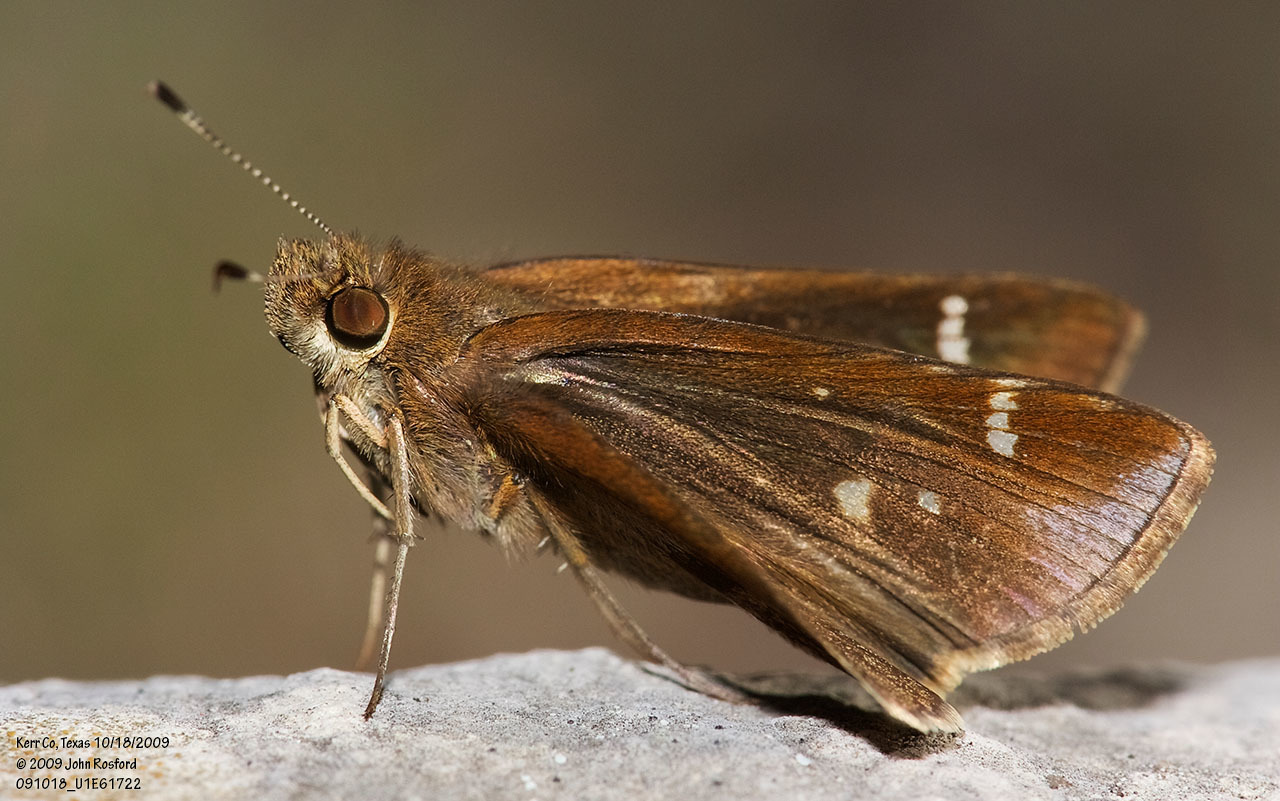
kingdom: Animalia
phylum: Arthropoda
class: Insecta
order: Lepidoptera
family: Hesperiidae
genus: Lerema
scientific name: Lerema accius
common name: Clouded skipper
